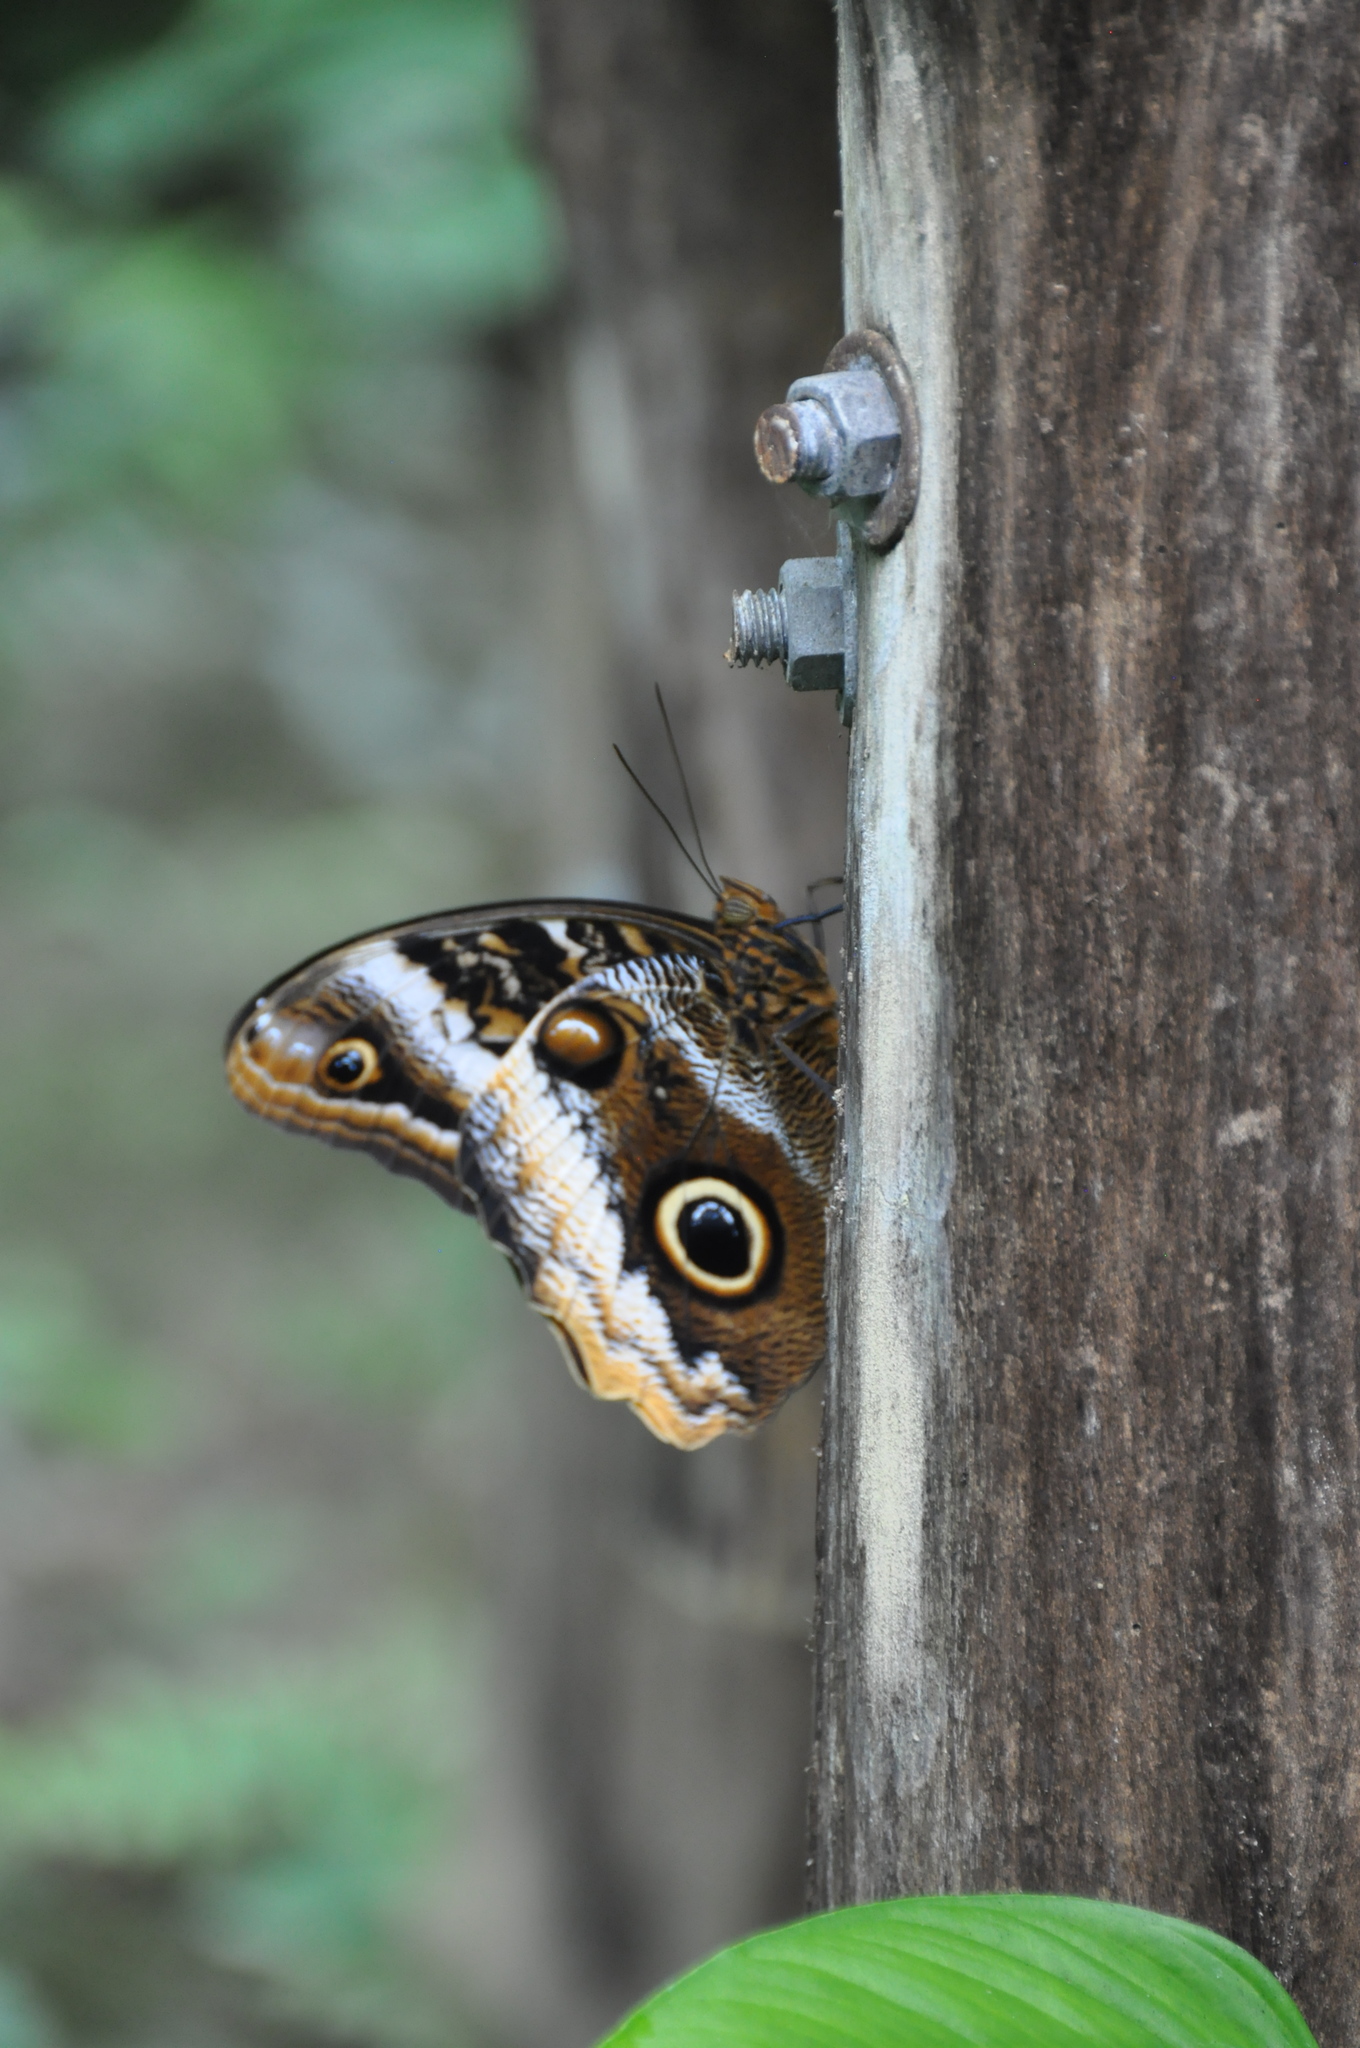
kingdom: Animalia
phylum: Arthropoda
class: Insecta
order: Lepidoptera
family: Nymphalidae
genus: Caligo
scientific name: Caligo atreus
